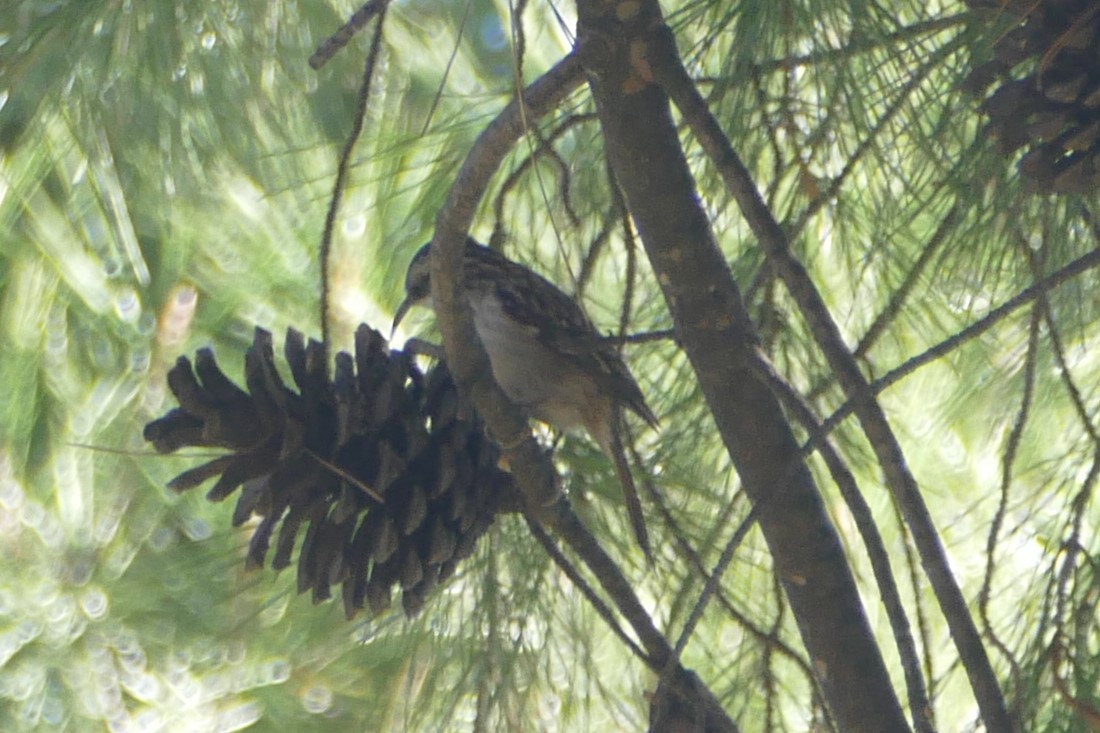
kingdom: Animalia
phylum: Chordata
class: Aves
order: Passeriformes
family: Certhiidae
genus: Certhia
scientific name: Certhia brachydactyla
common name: Short-toed treecreeper
